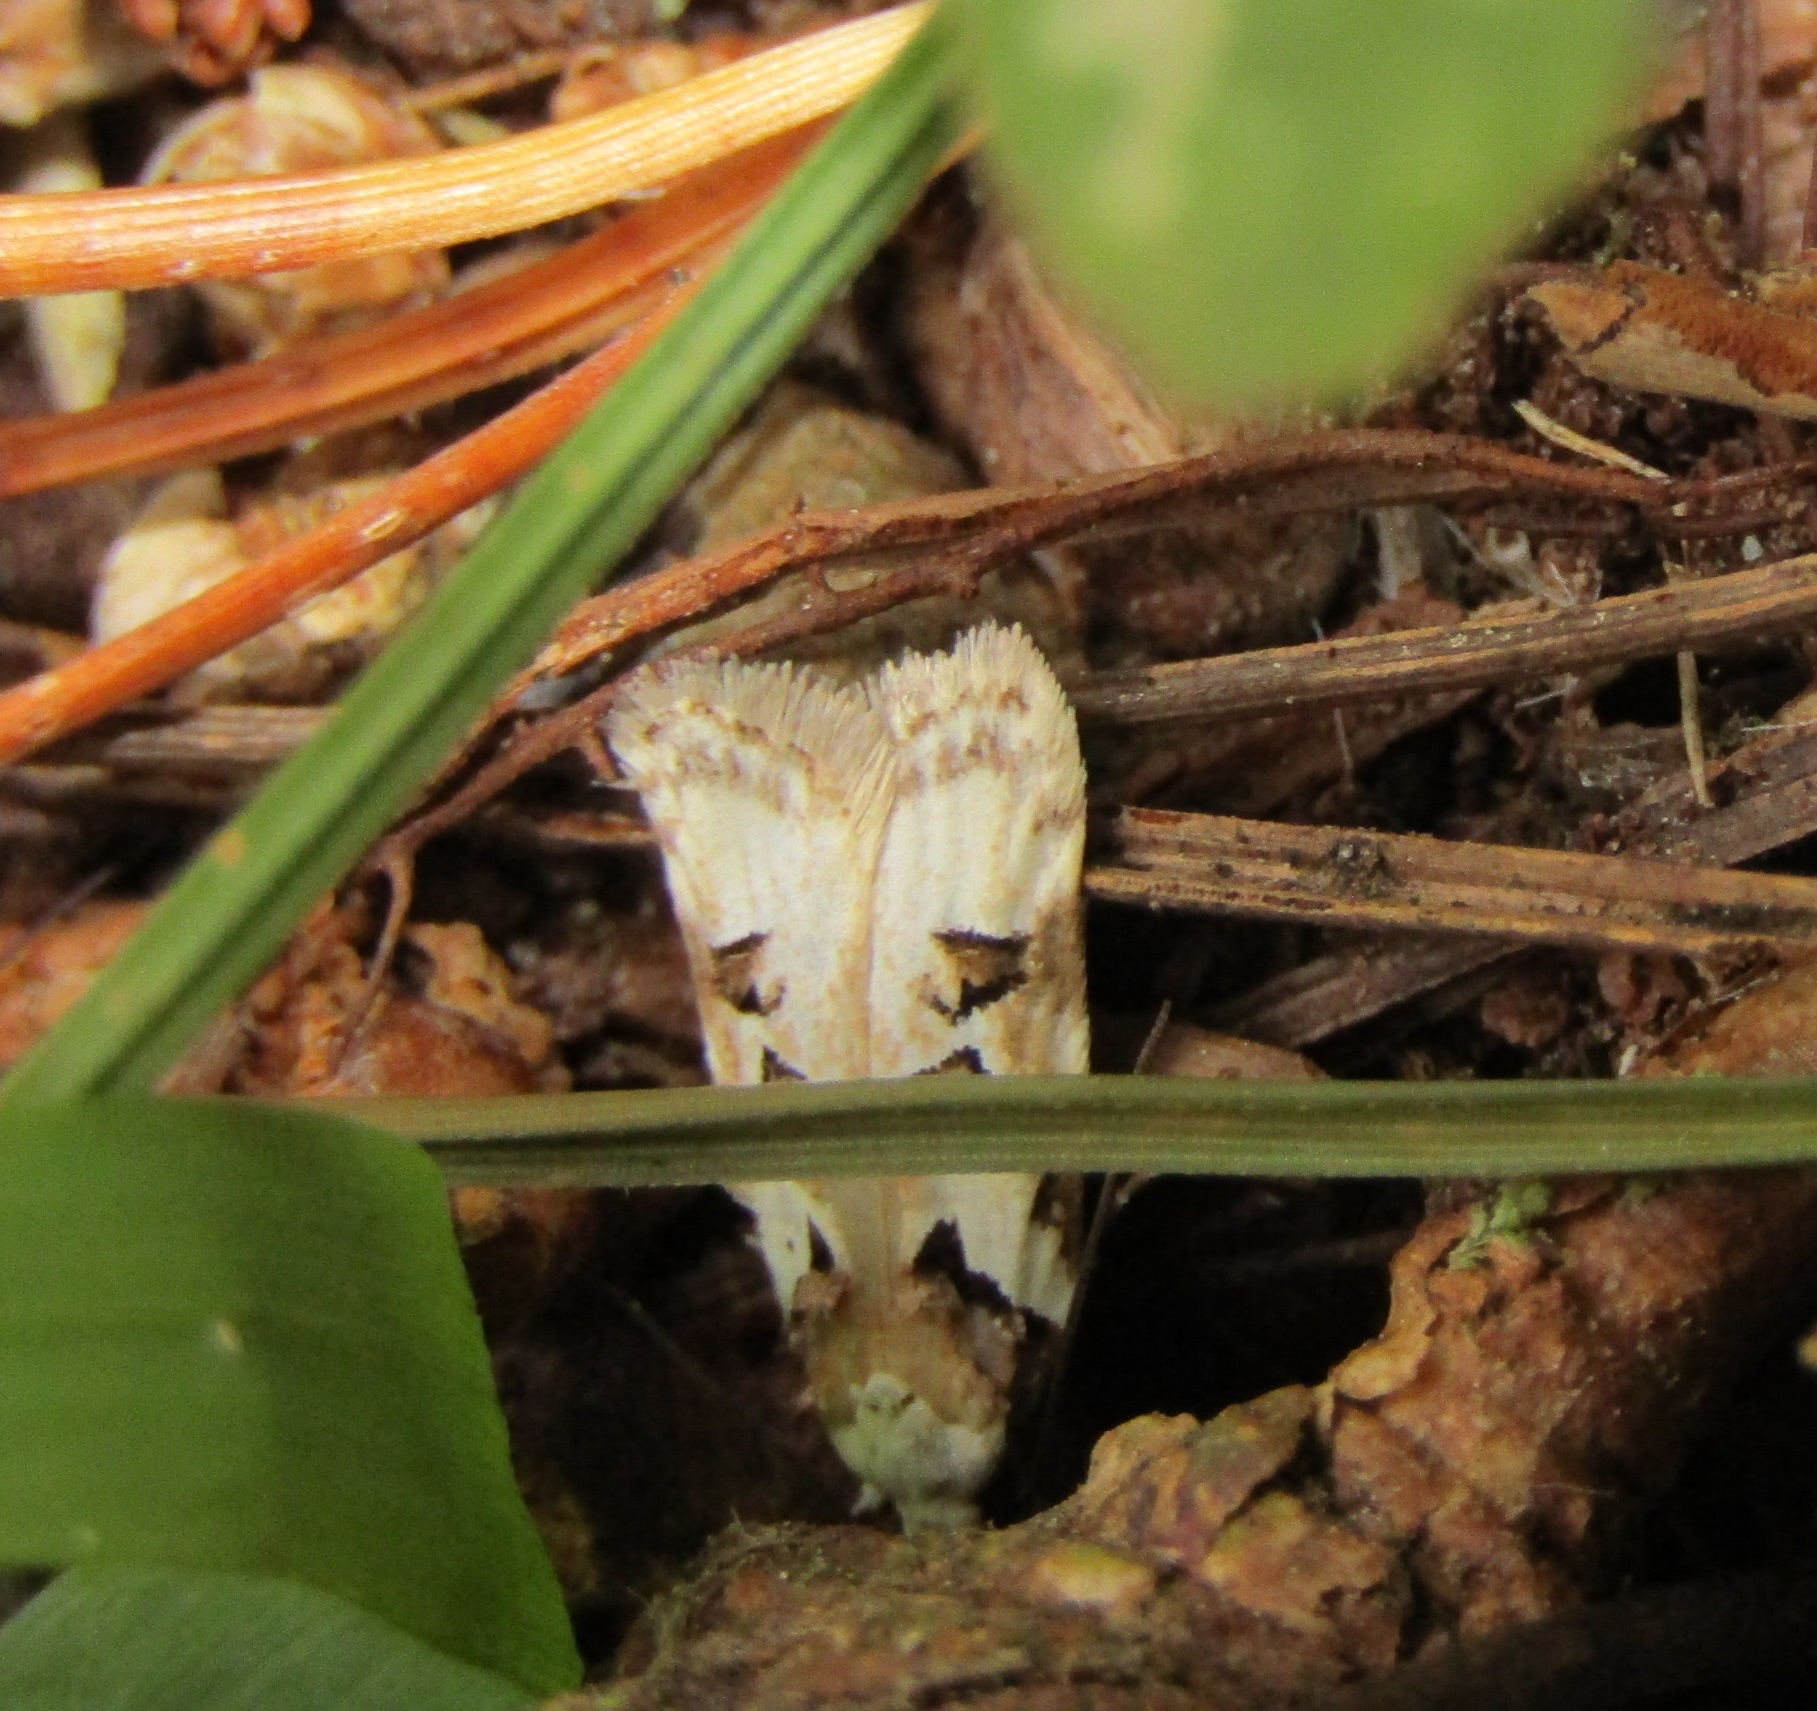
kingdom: Animalia
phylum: Arthropoda
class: Insecta
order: Lepidoptera
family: Oecophoridae
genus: Izatha
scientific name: Izatha epiphanes
